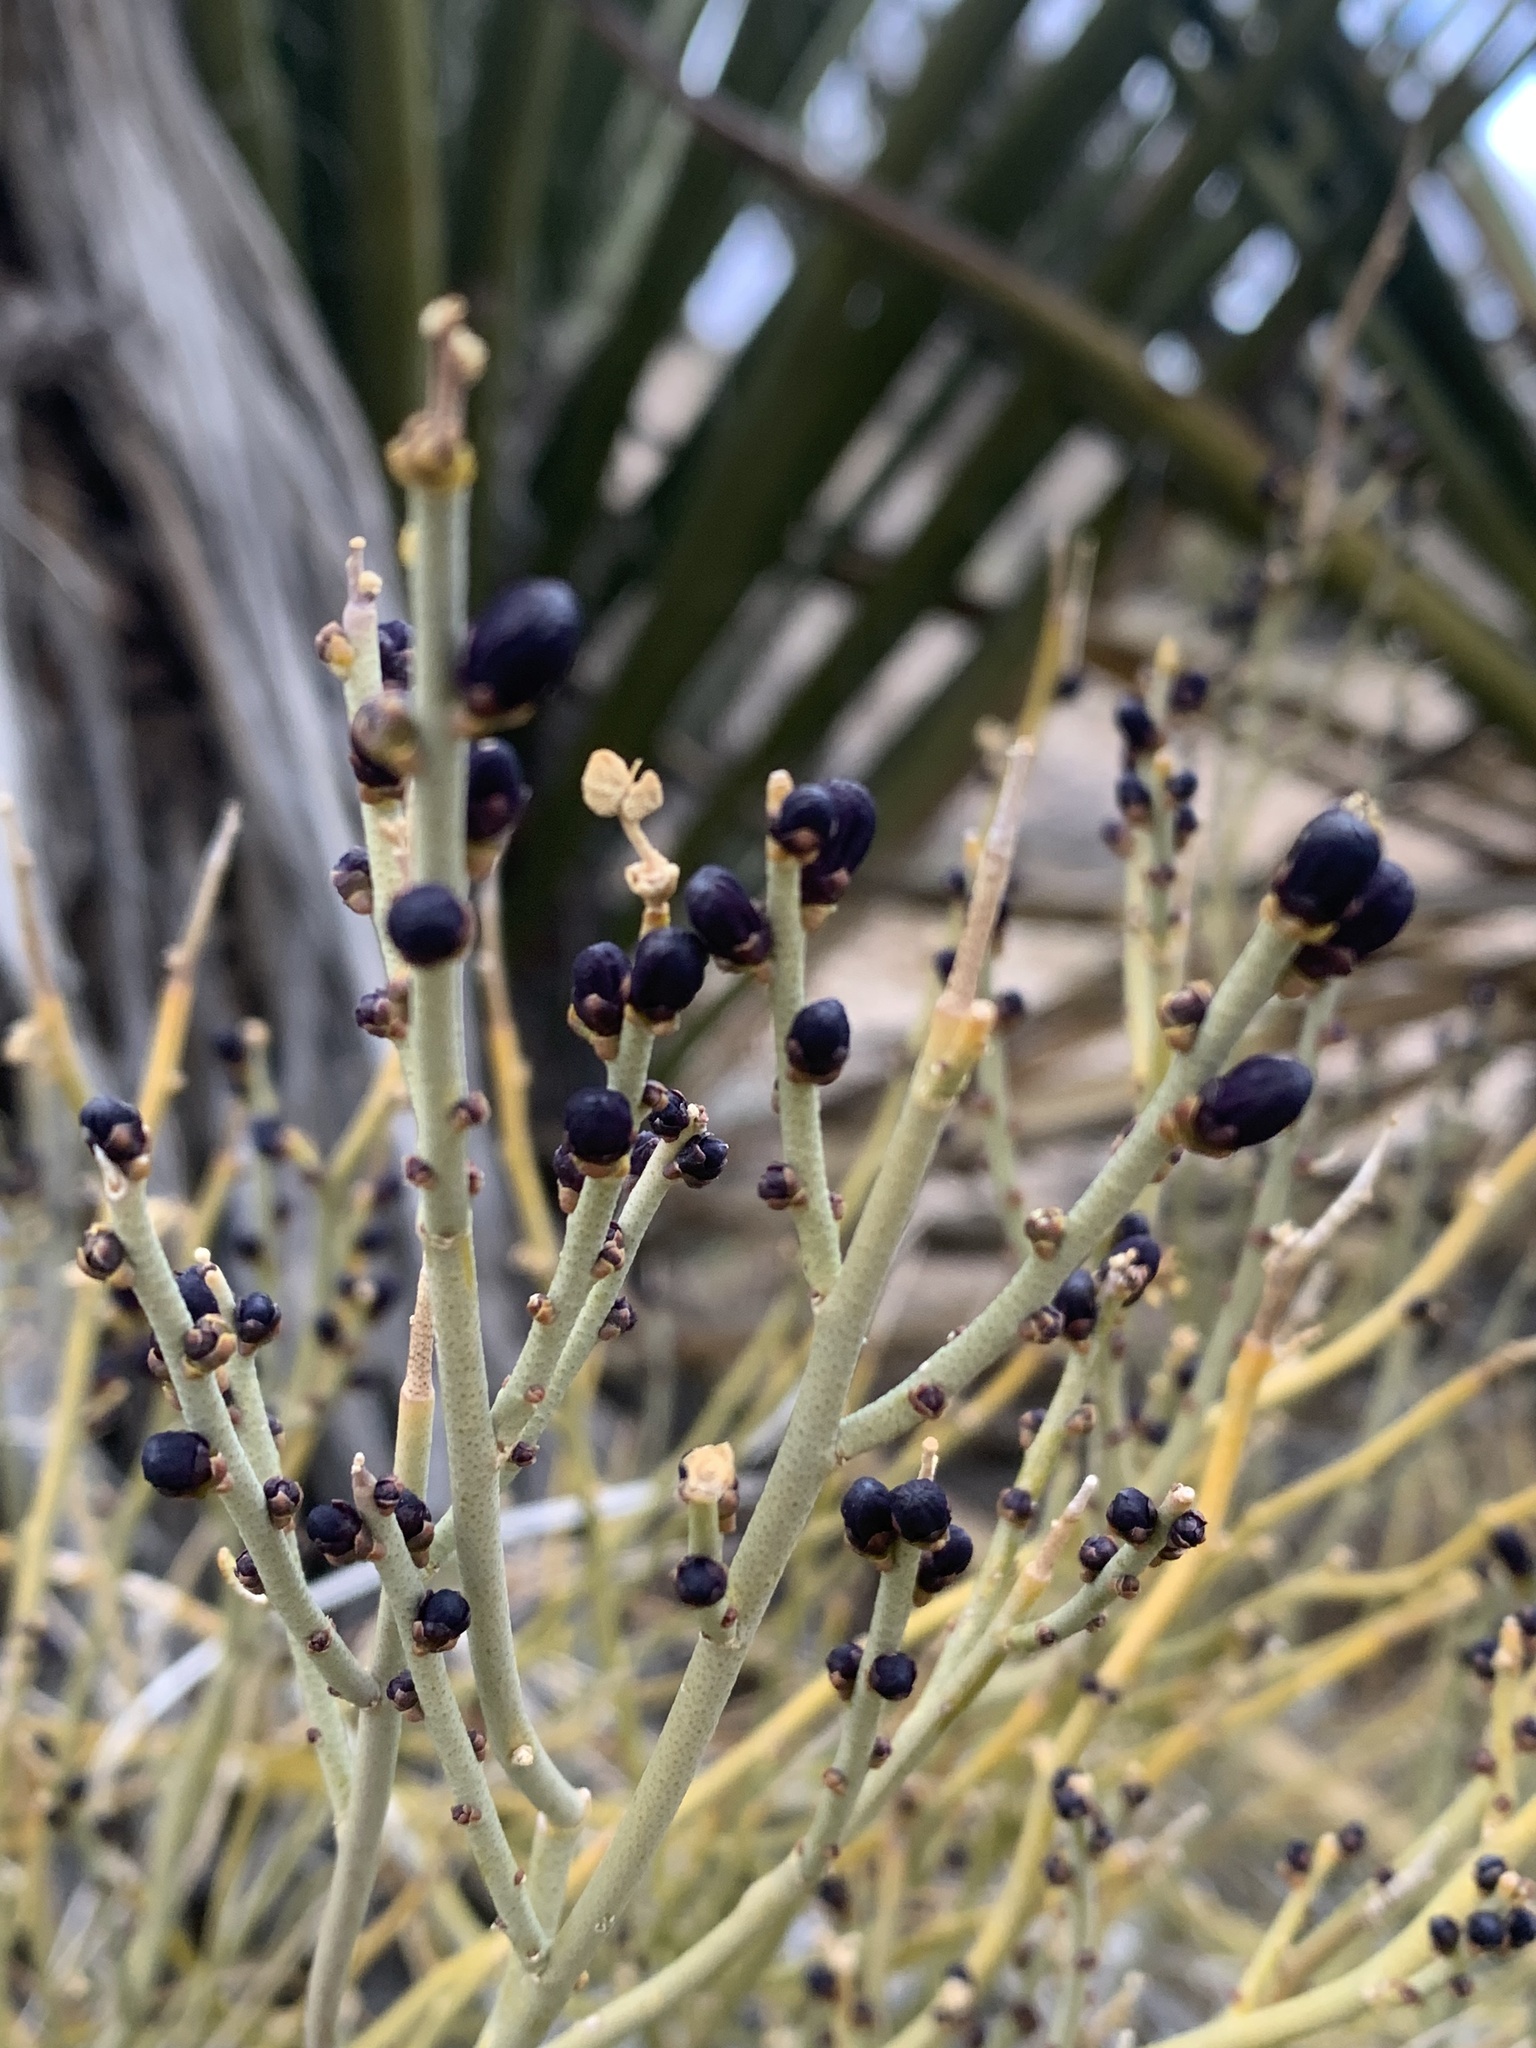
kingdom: Plantae
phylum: Tracheophyta
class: Magnoliopsida
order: Sapindales
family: Rutaceae
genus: Thamnosma
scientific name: Thamnosma montana
